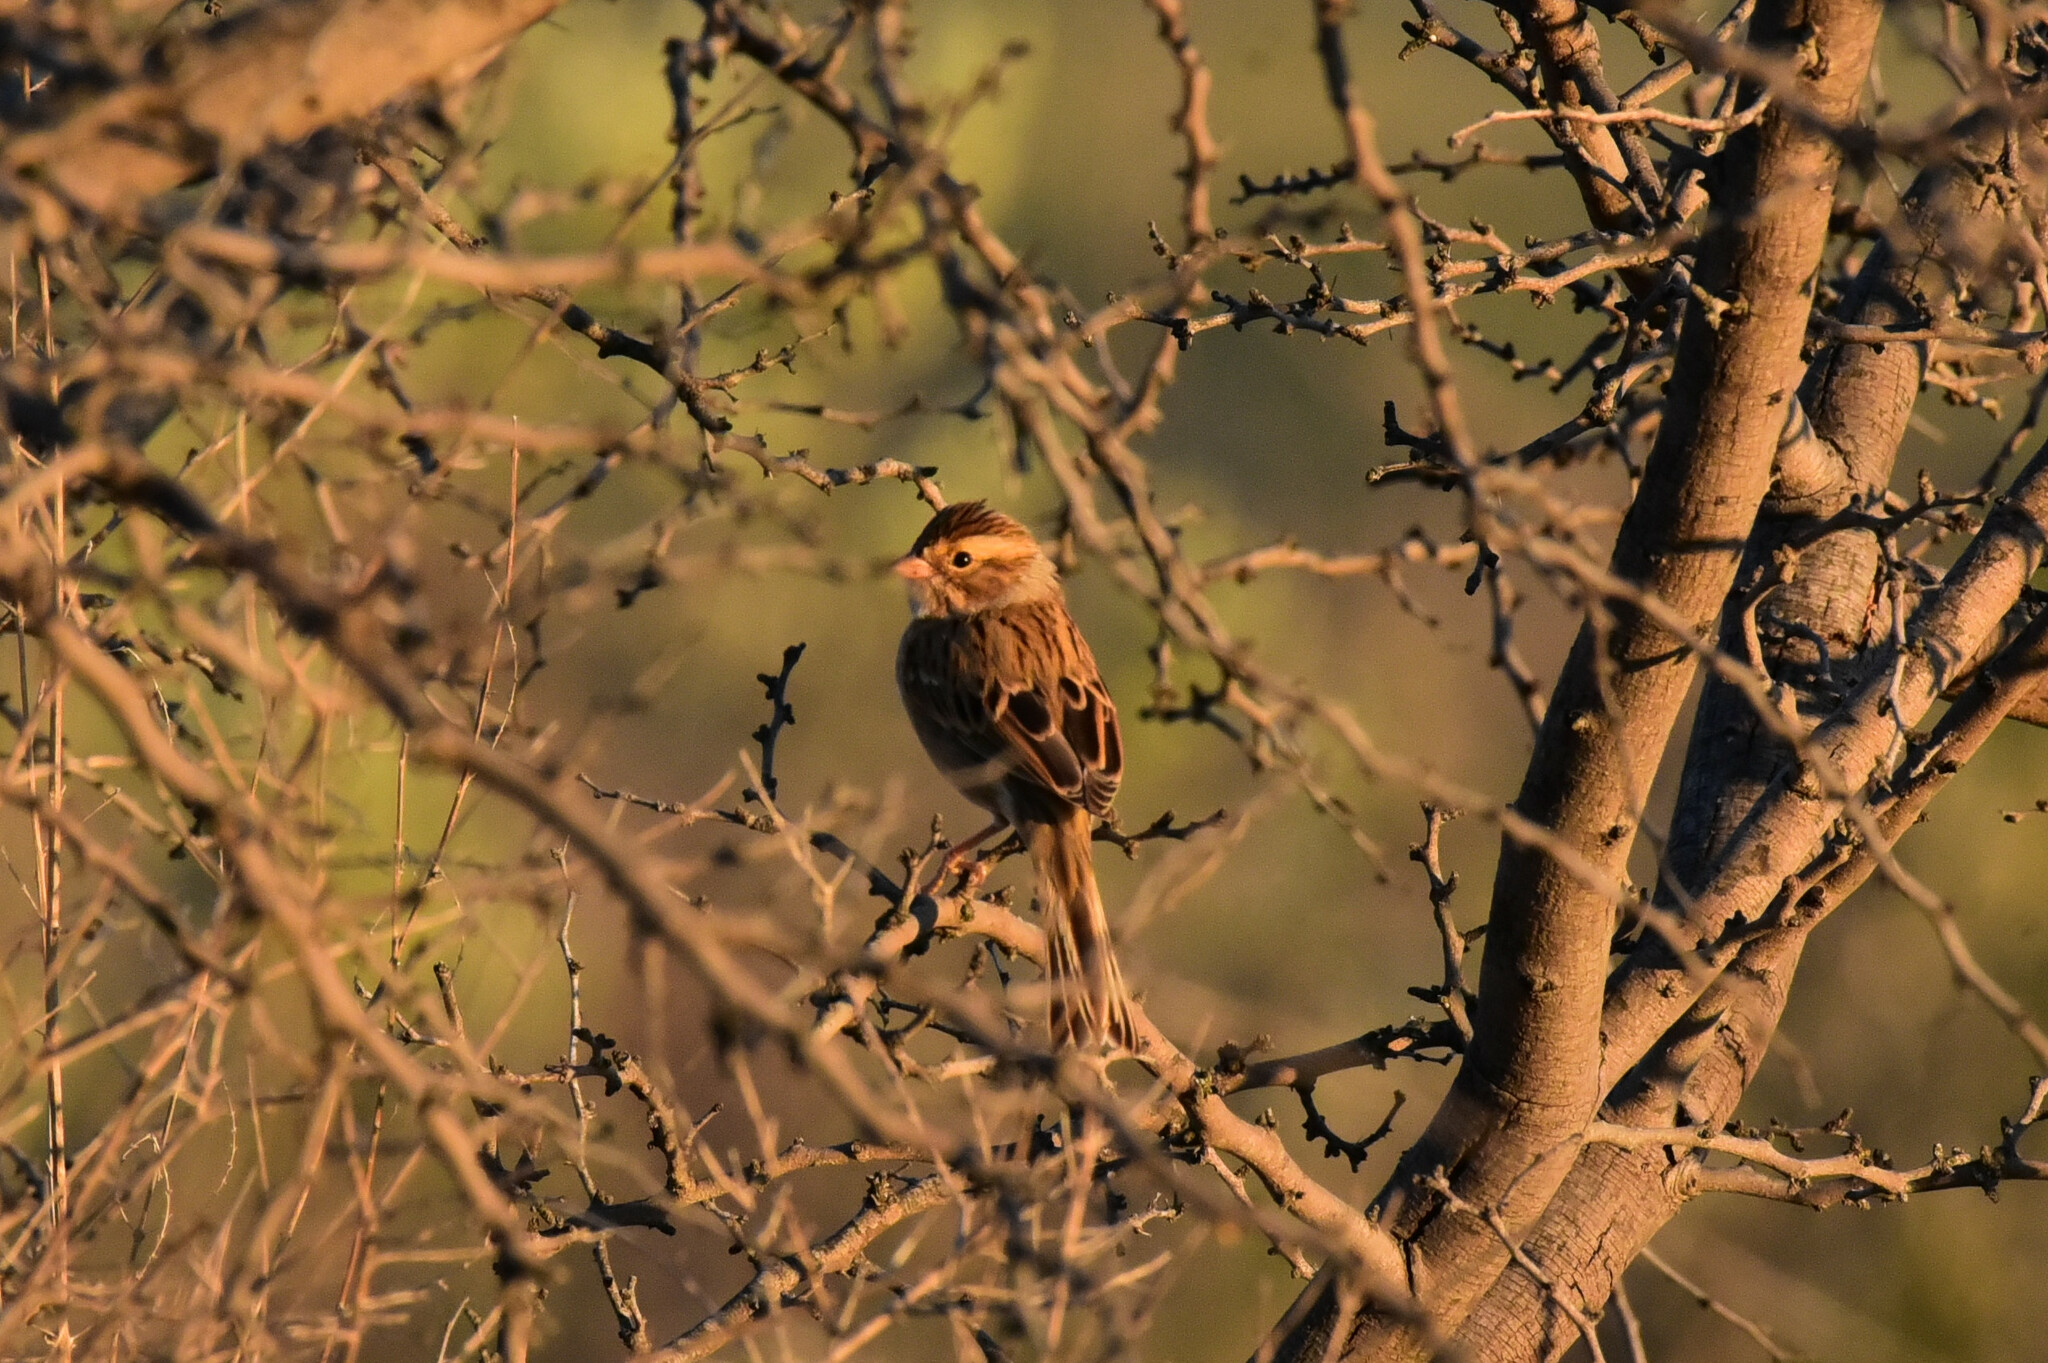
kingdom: Animalia
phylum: Chordata
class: Aves
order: Passeriformes
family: Passerellidae
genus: Spizella
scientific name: Spizella pallida
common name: Clay-colored sparrow
